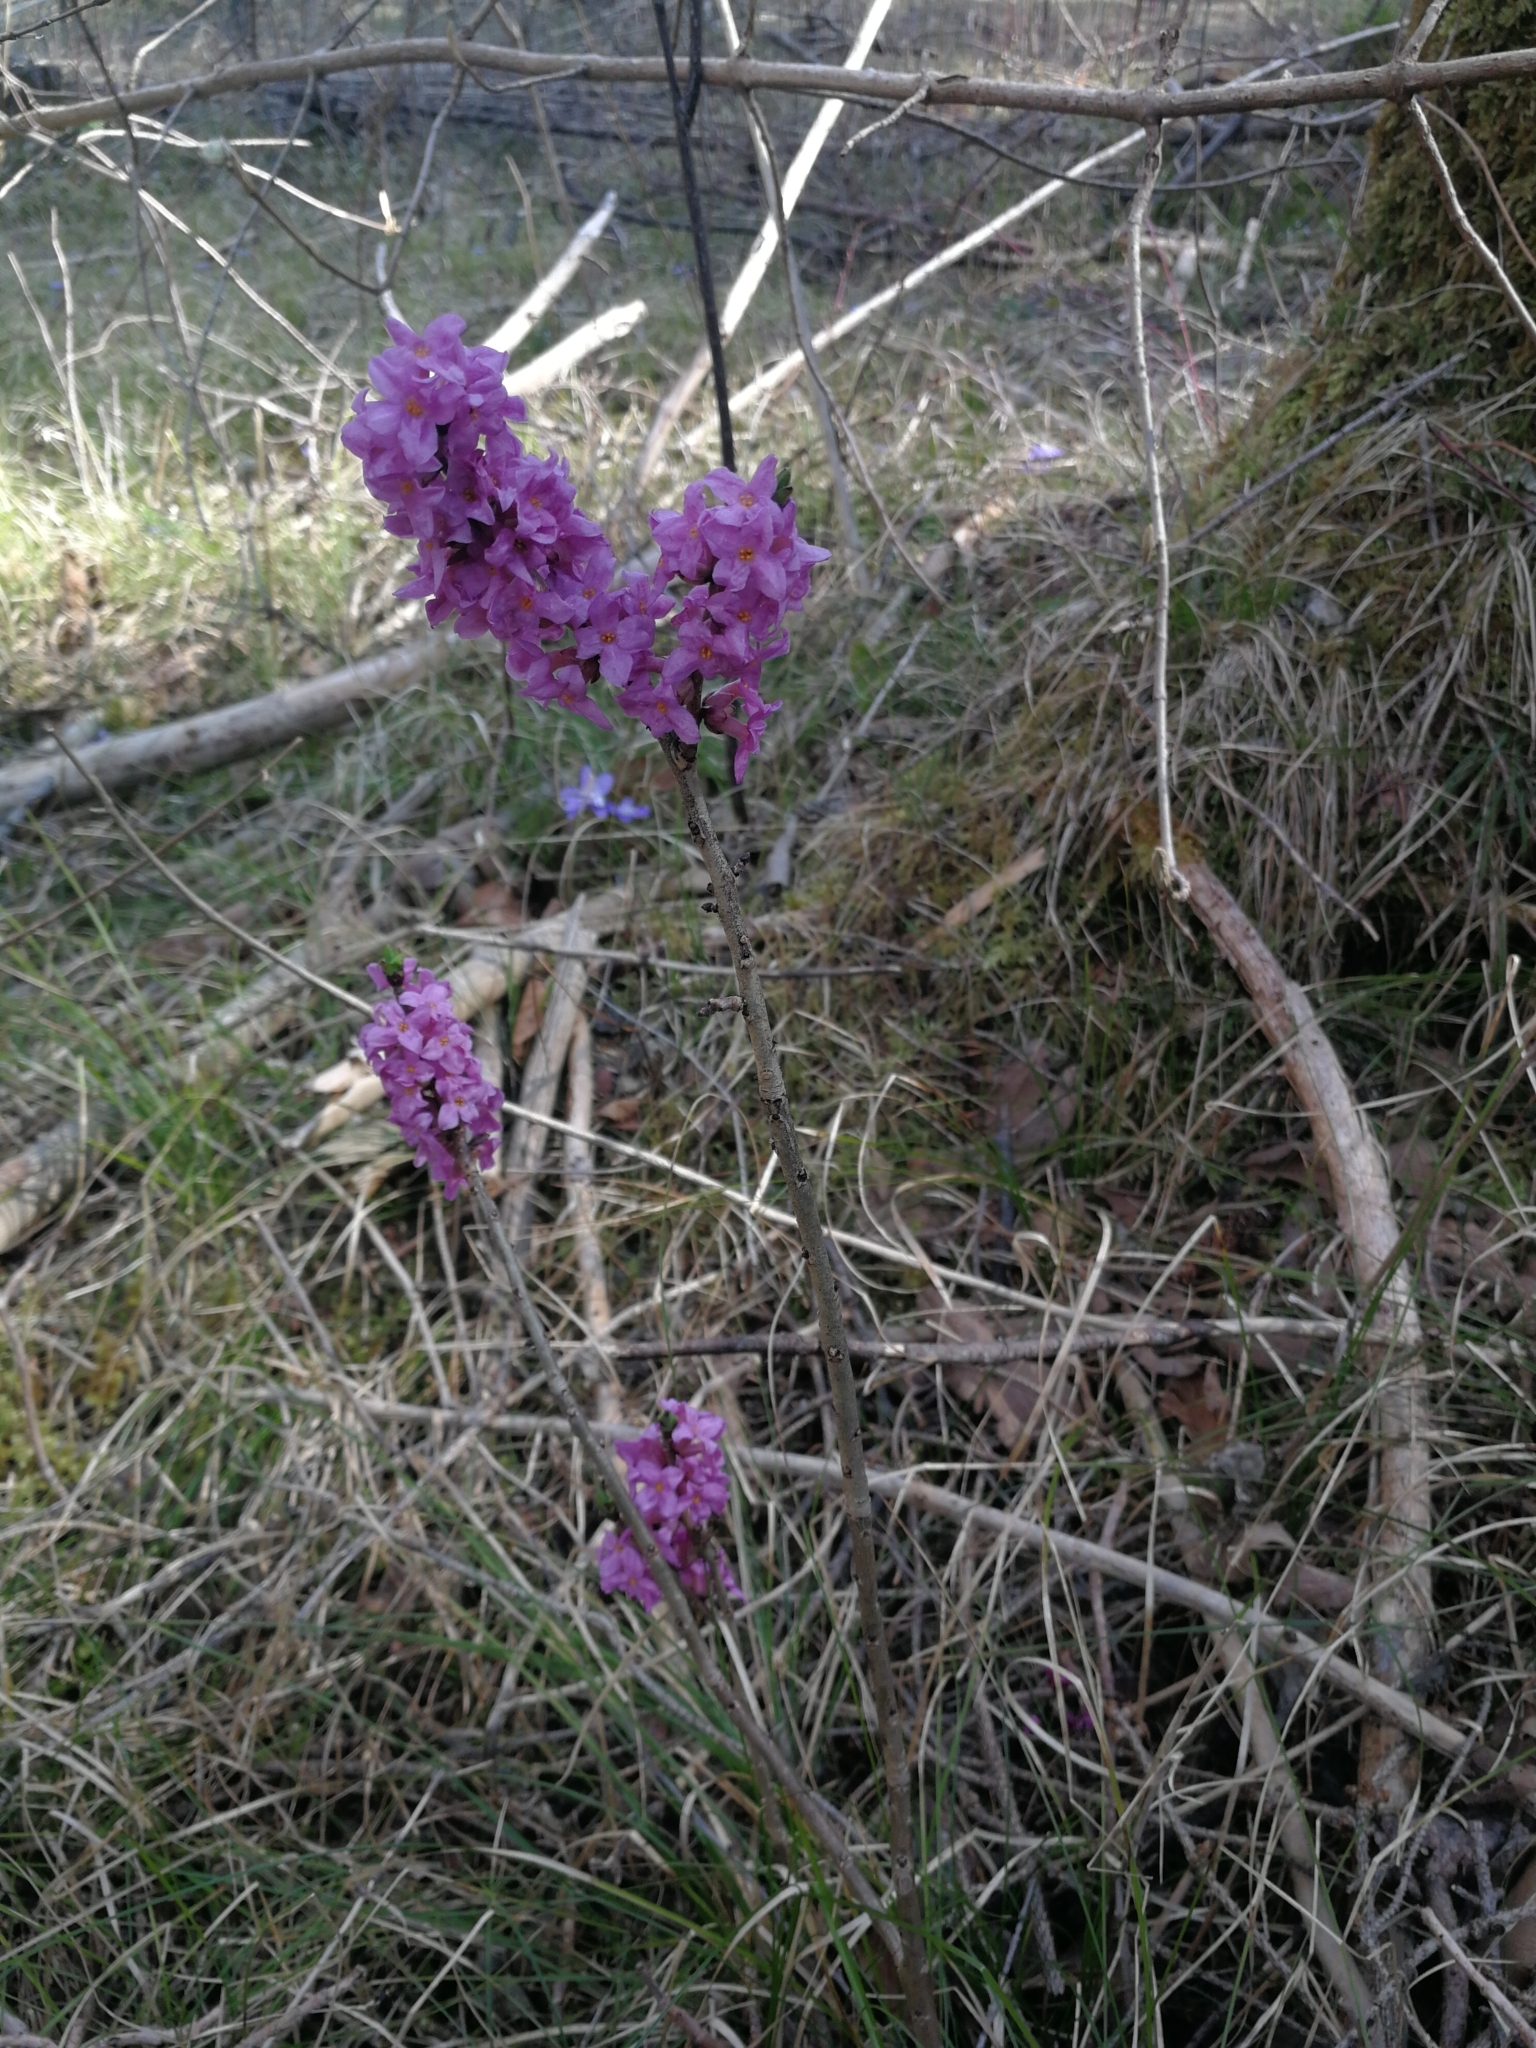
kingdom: Plantae
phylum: Tracheophyta
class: Magnoliopsida
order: Malvales
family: Thymelaeaceae
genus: Daphne
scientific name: Daphne mezereum
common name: Mezereon
